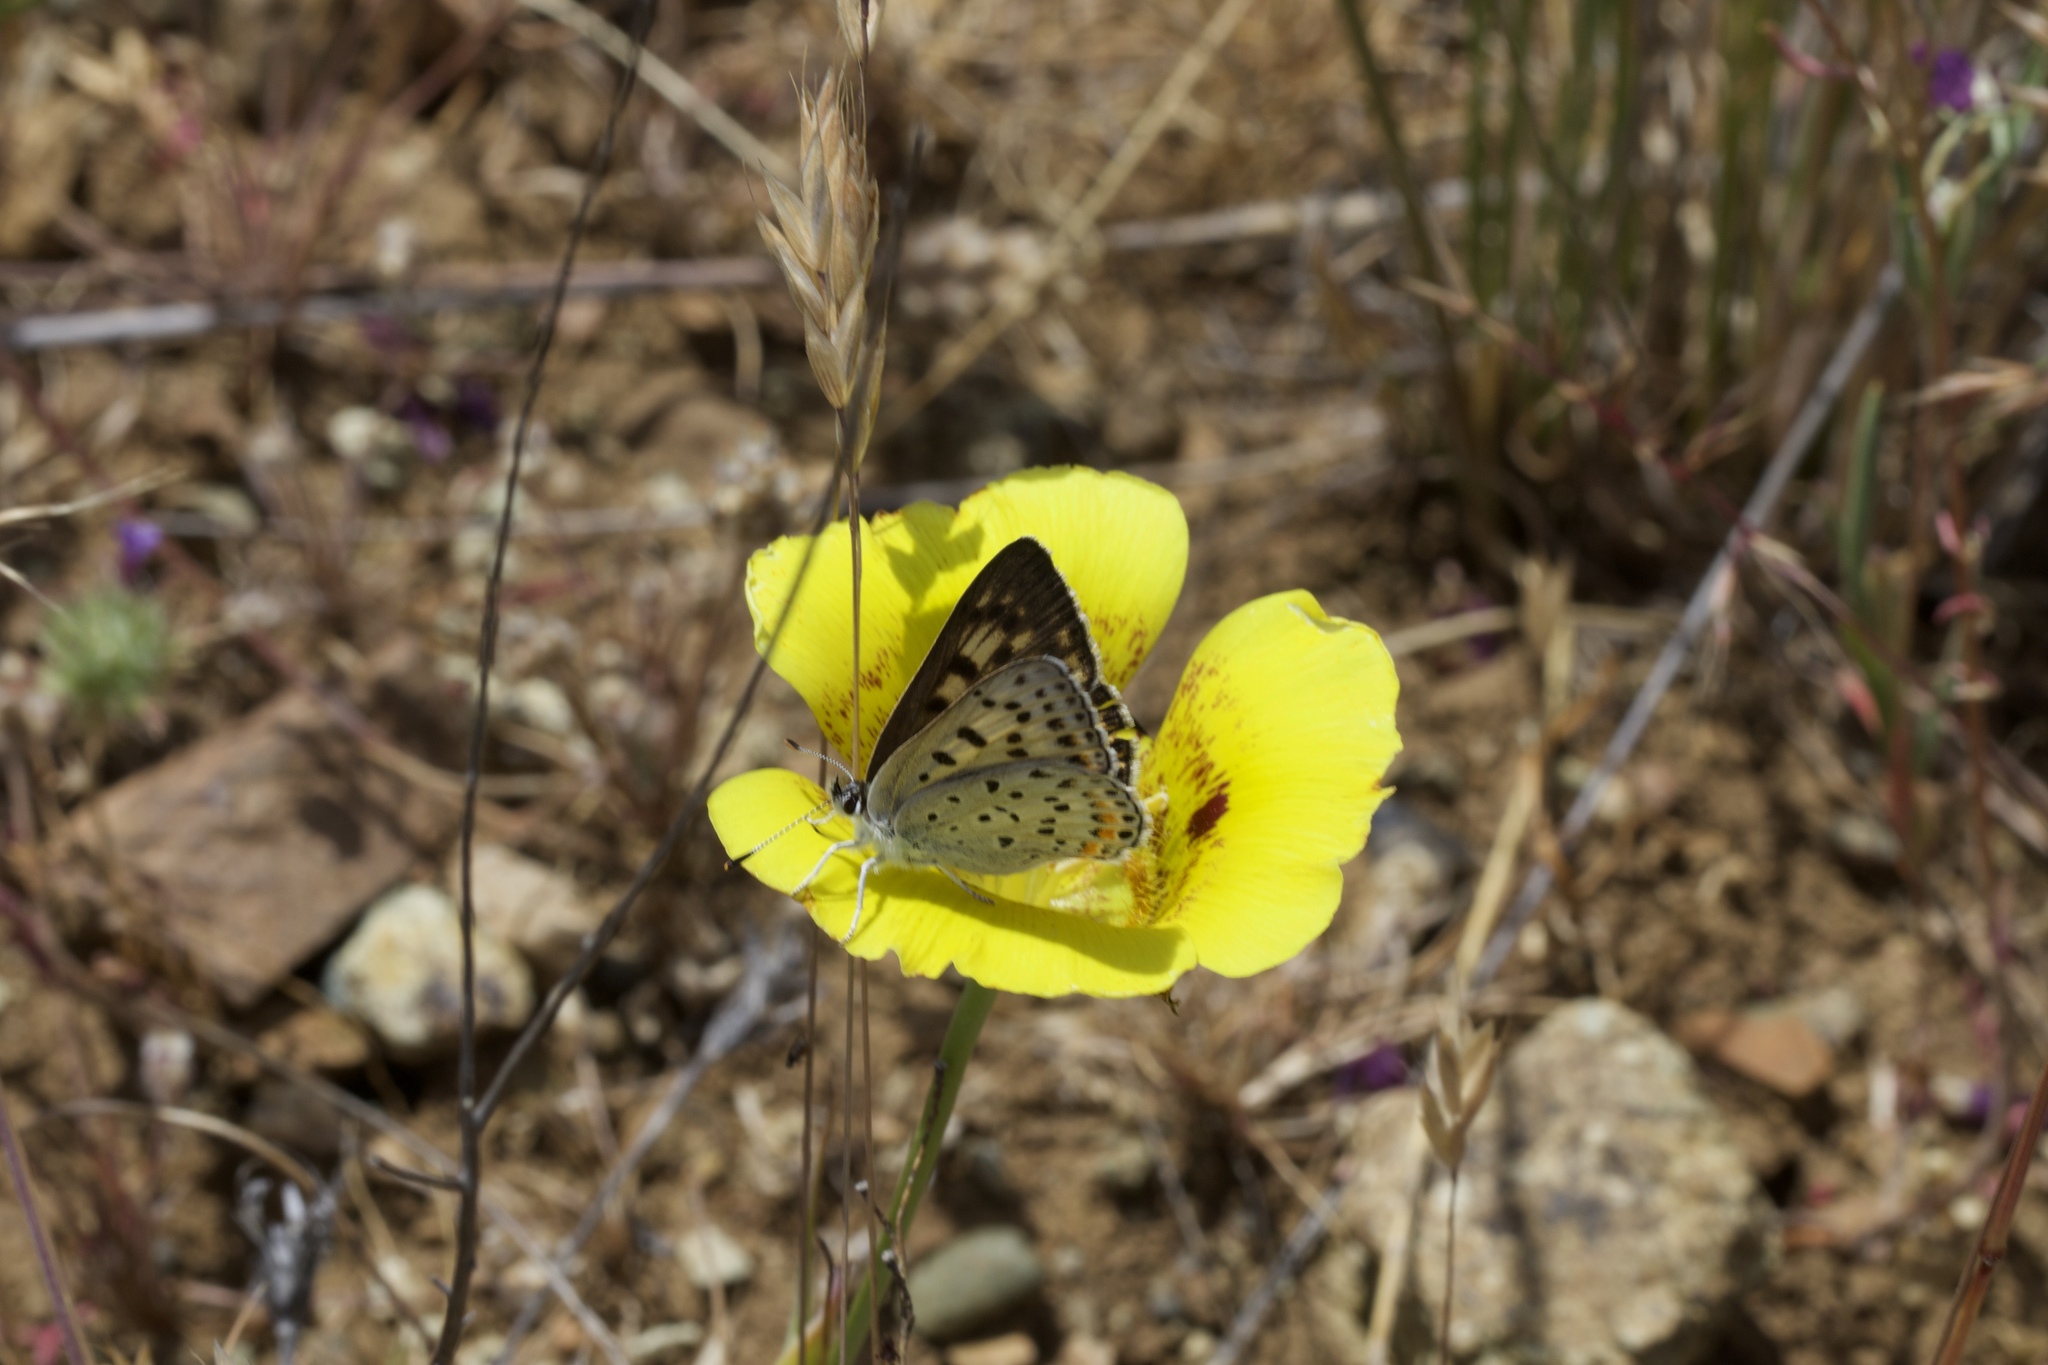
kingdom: Animalia
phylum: Arthropoda
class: Insecta
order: Lepidoptera
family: Lycaenidae
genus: Tharsalea
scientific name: Tharsalea gorgon
